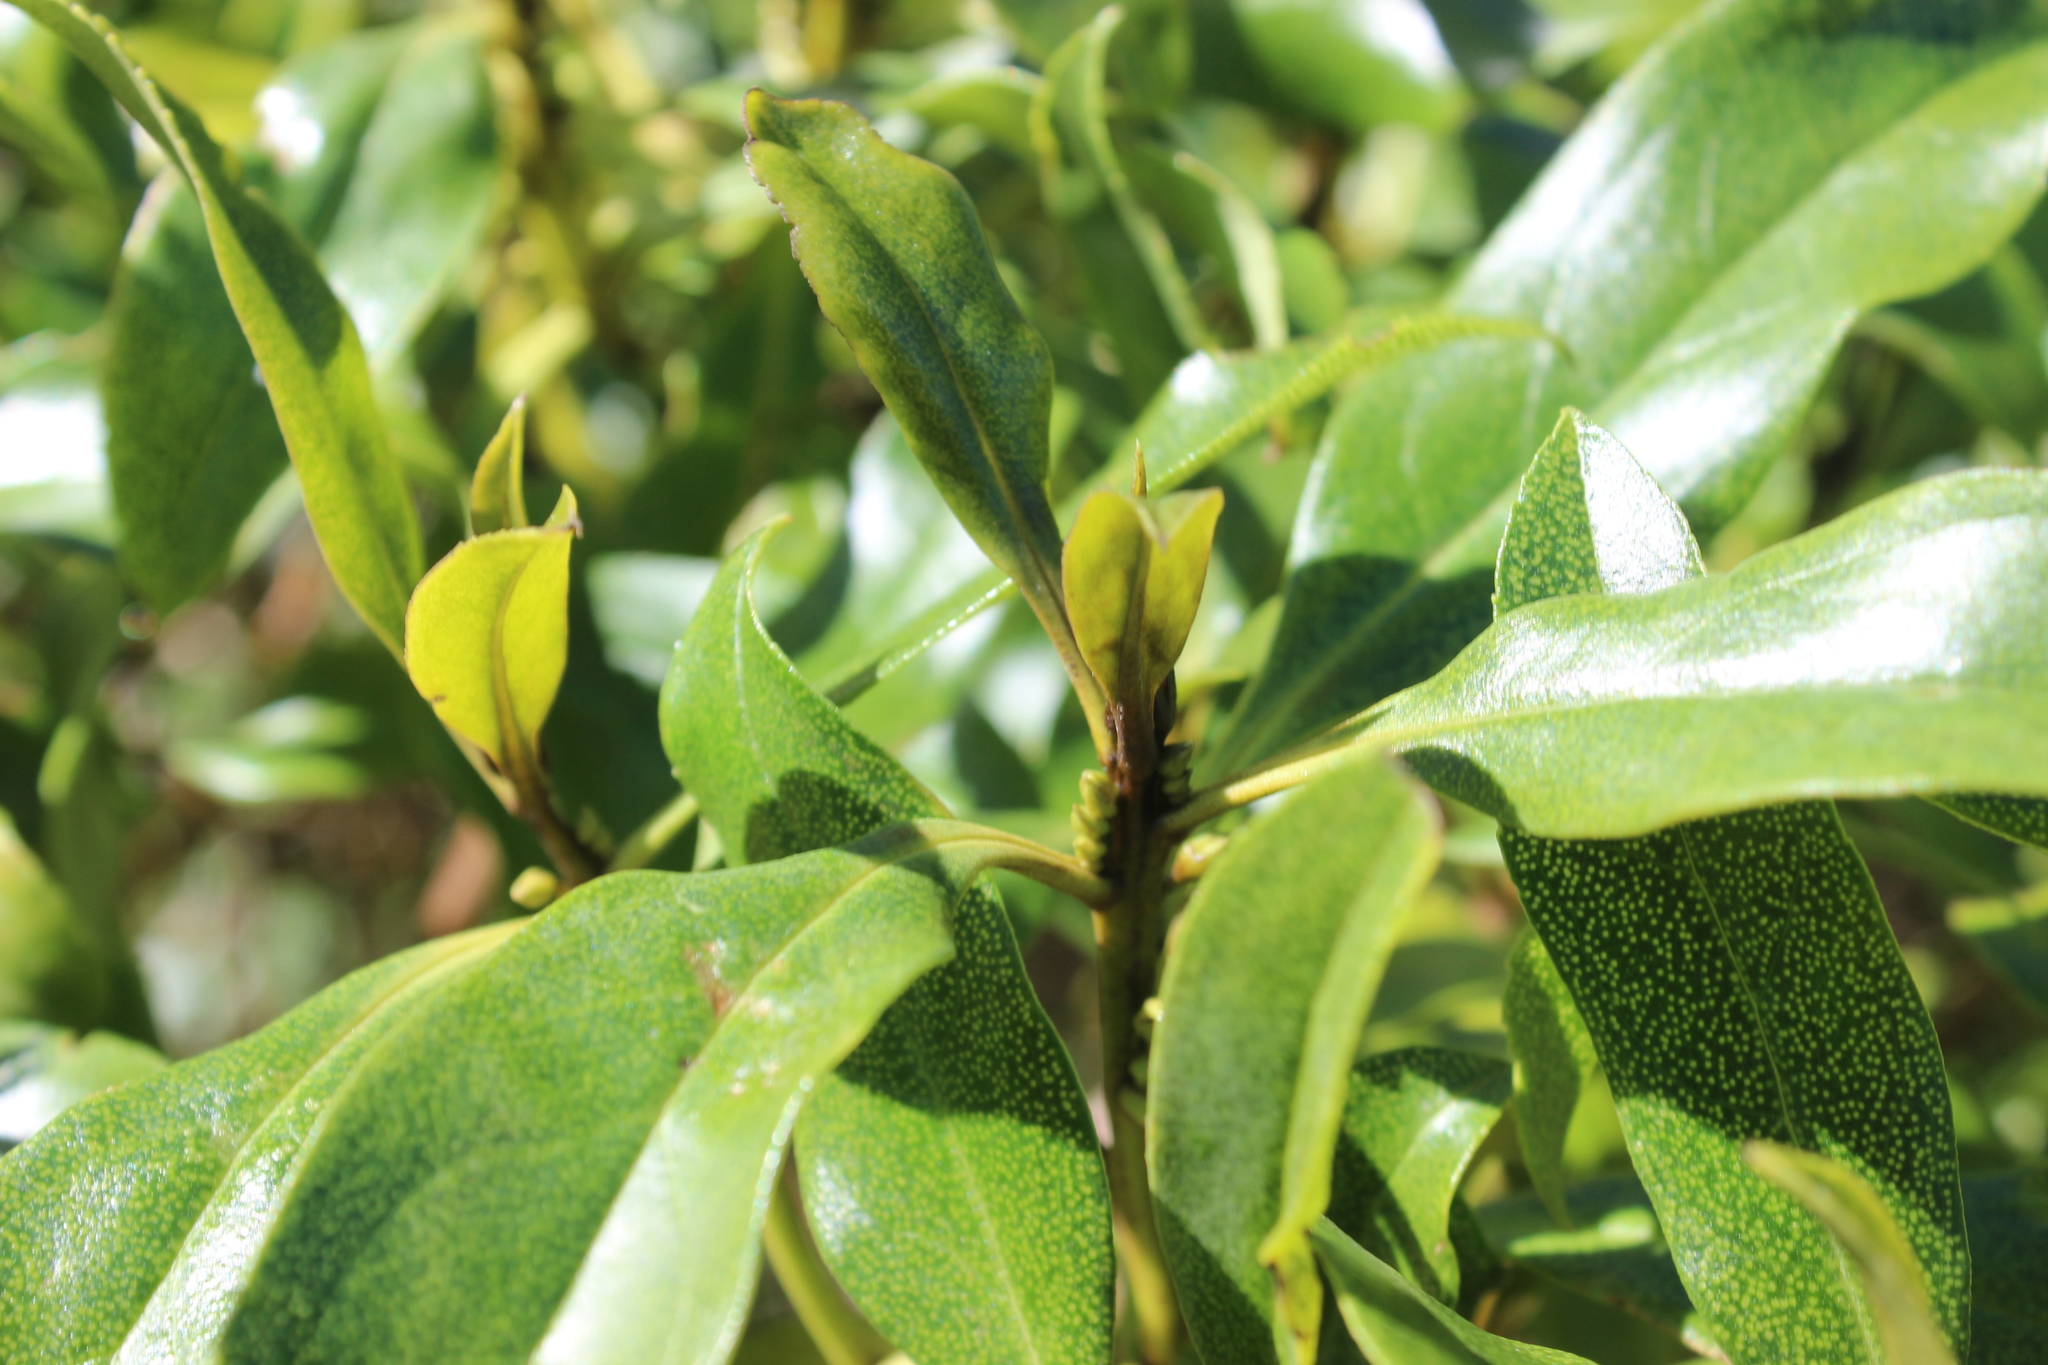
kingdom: Plantae
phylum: Tracheophyta
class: Magnoliopsida
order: Lamiales
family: Scrophulariaceae
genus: Myoporum
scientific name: Myoporum laetum
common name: Ngaio tree
